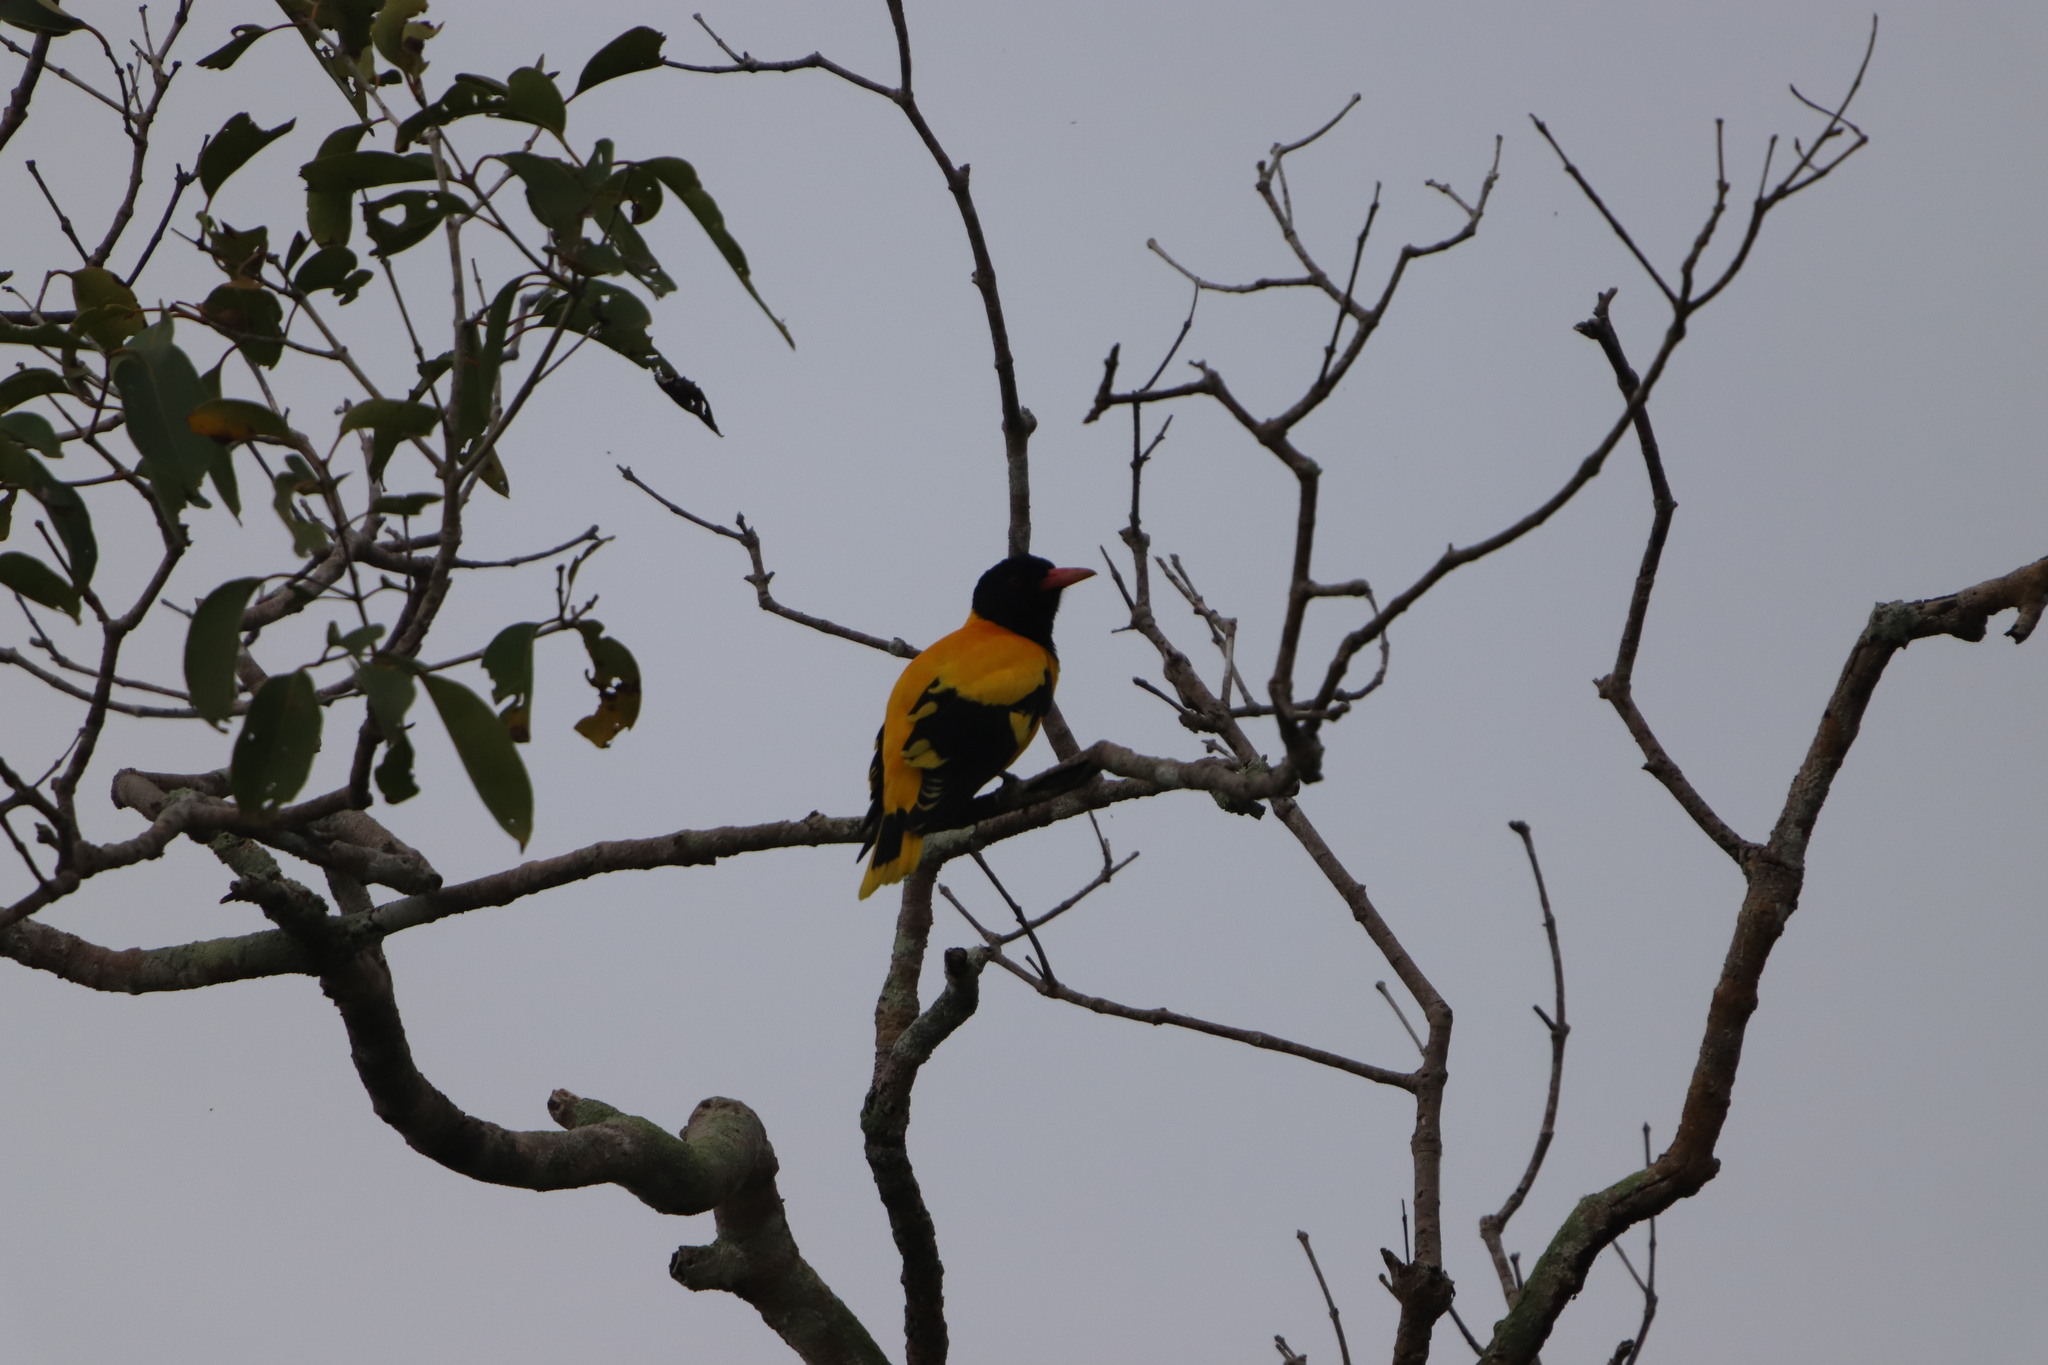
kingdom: Animalia
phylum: Chordata
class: Aves
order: Passeriformes
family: Oriolidae
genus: Oriolus
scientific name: Oriolus xanthornus
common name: Black-hooded oriole
